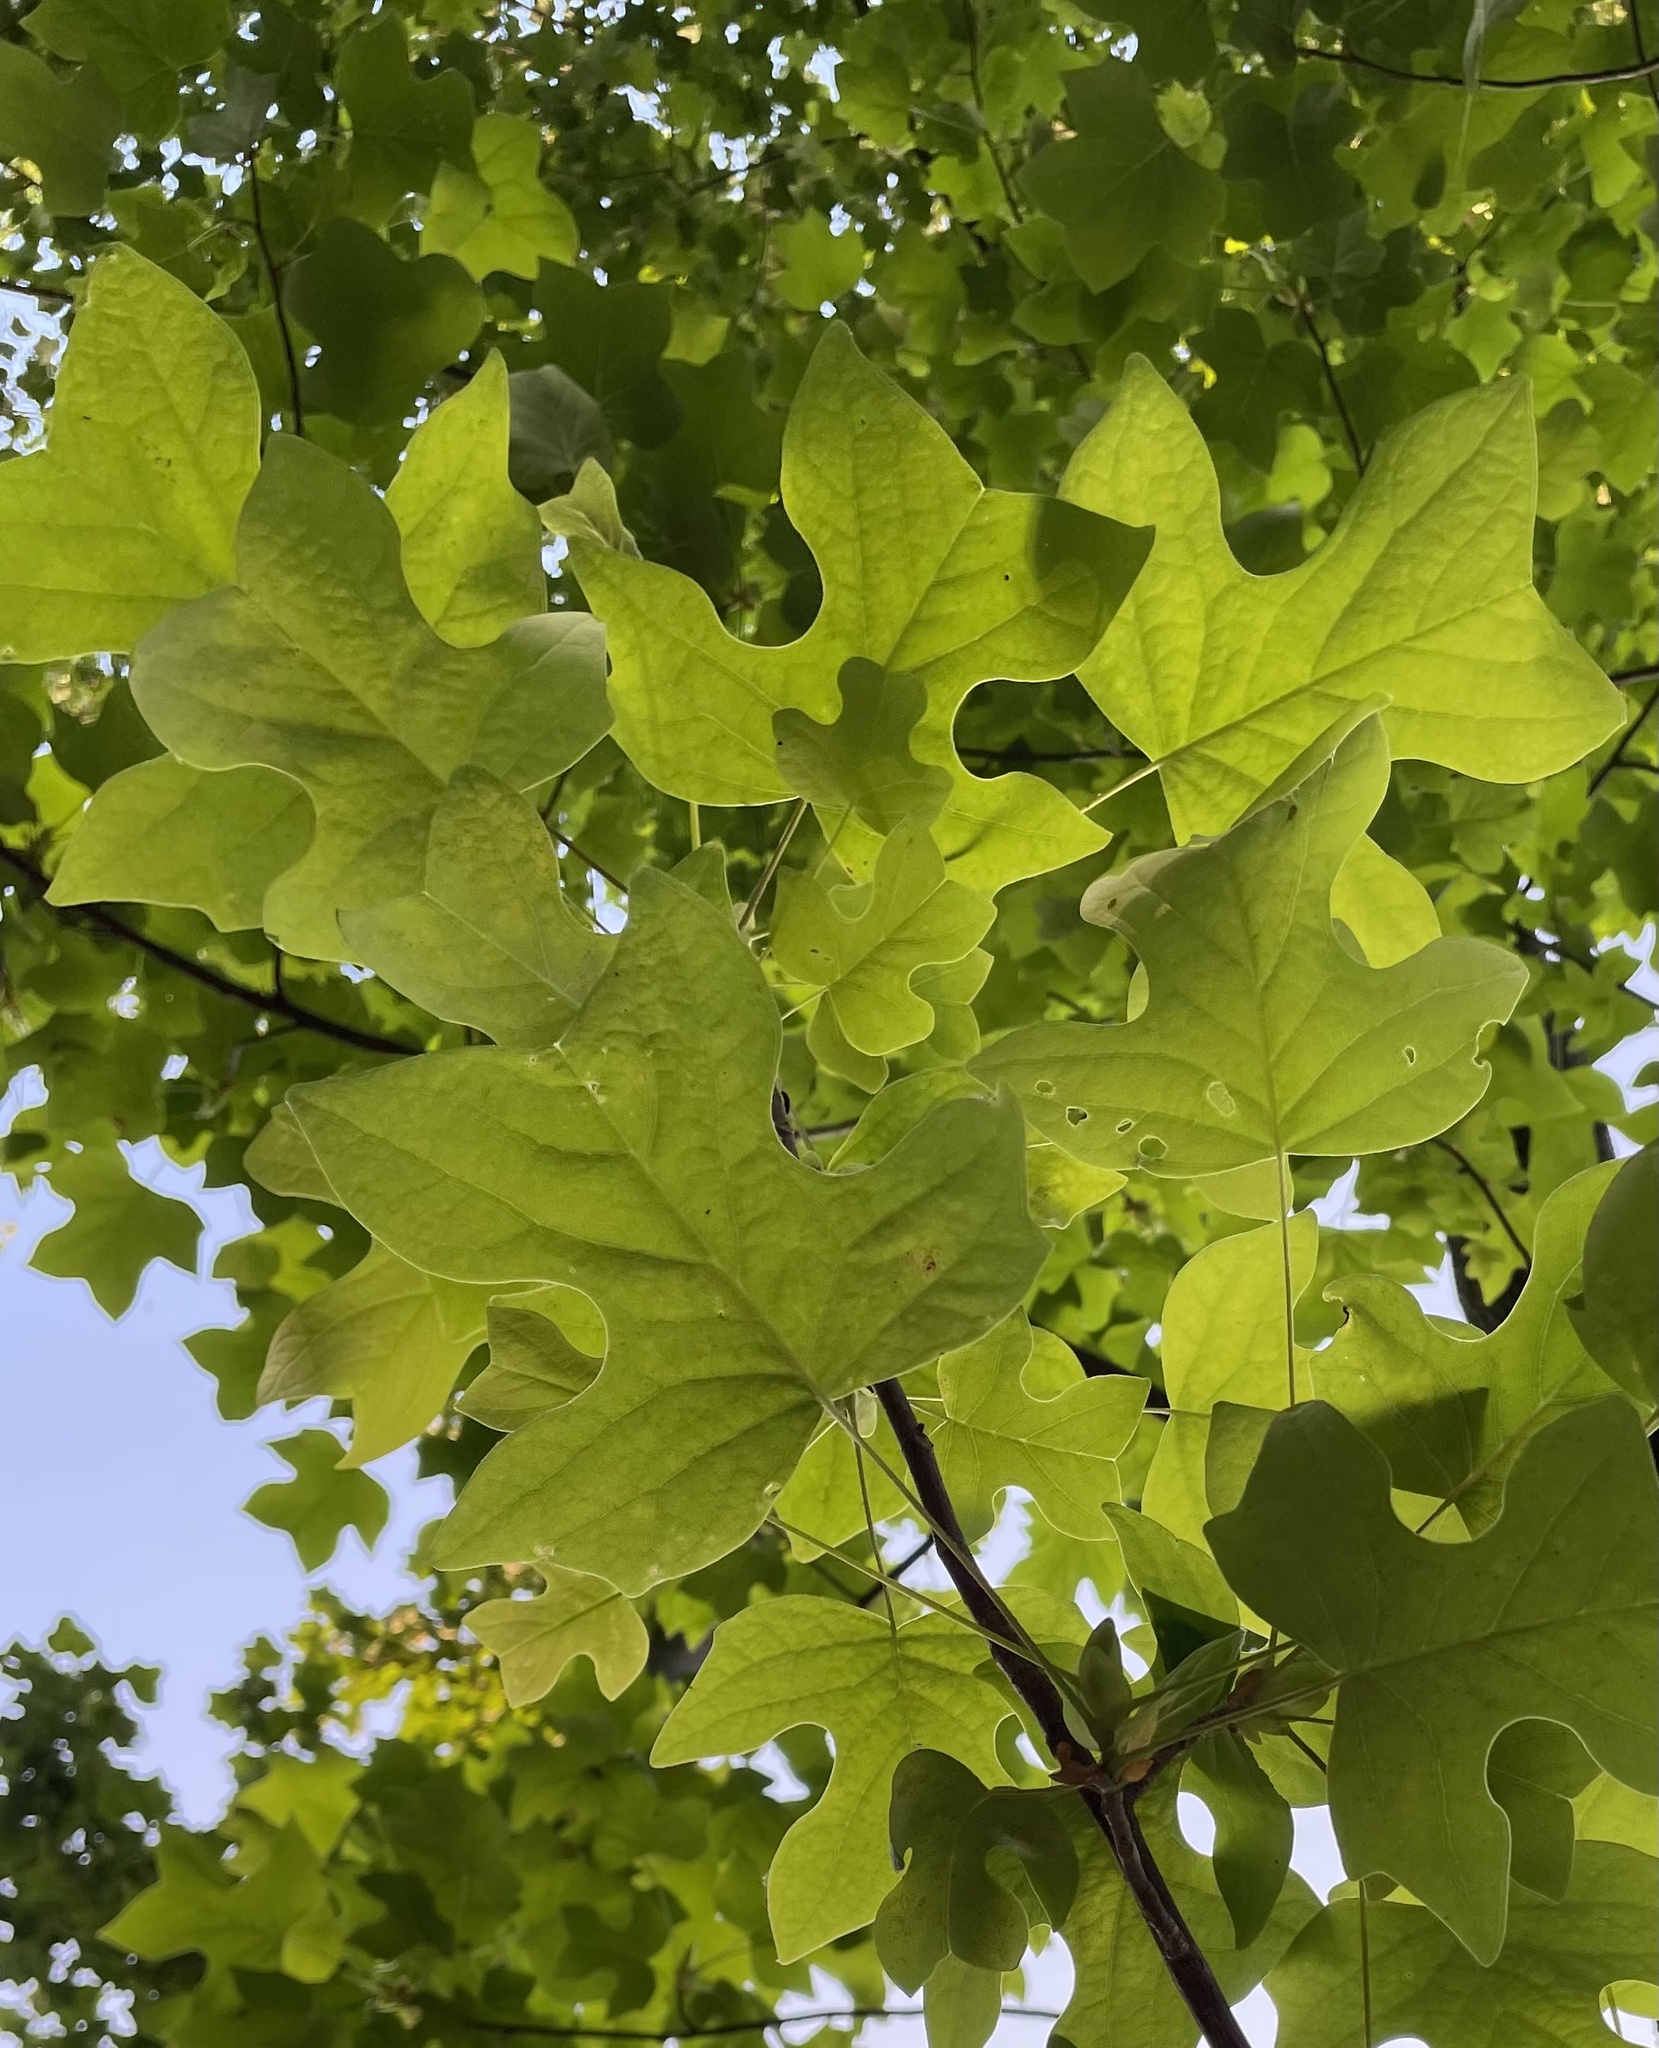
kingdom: Plantae
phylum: Tracheophyta
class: Magnoliopsida
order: Magnoliales
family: Magnoliaceae
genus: Liriodendron
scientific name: Liriodendron tulipifera
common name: Tulip tree
